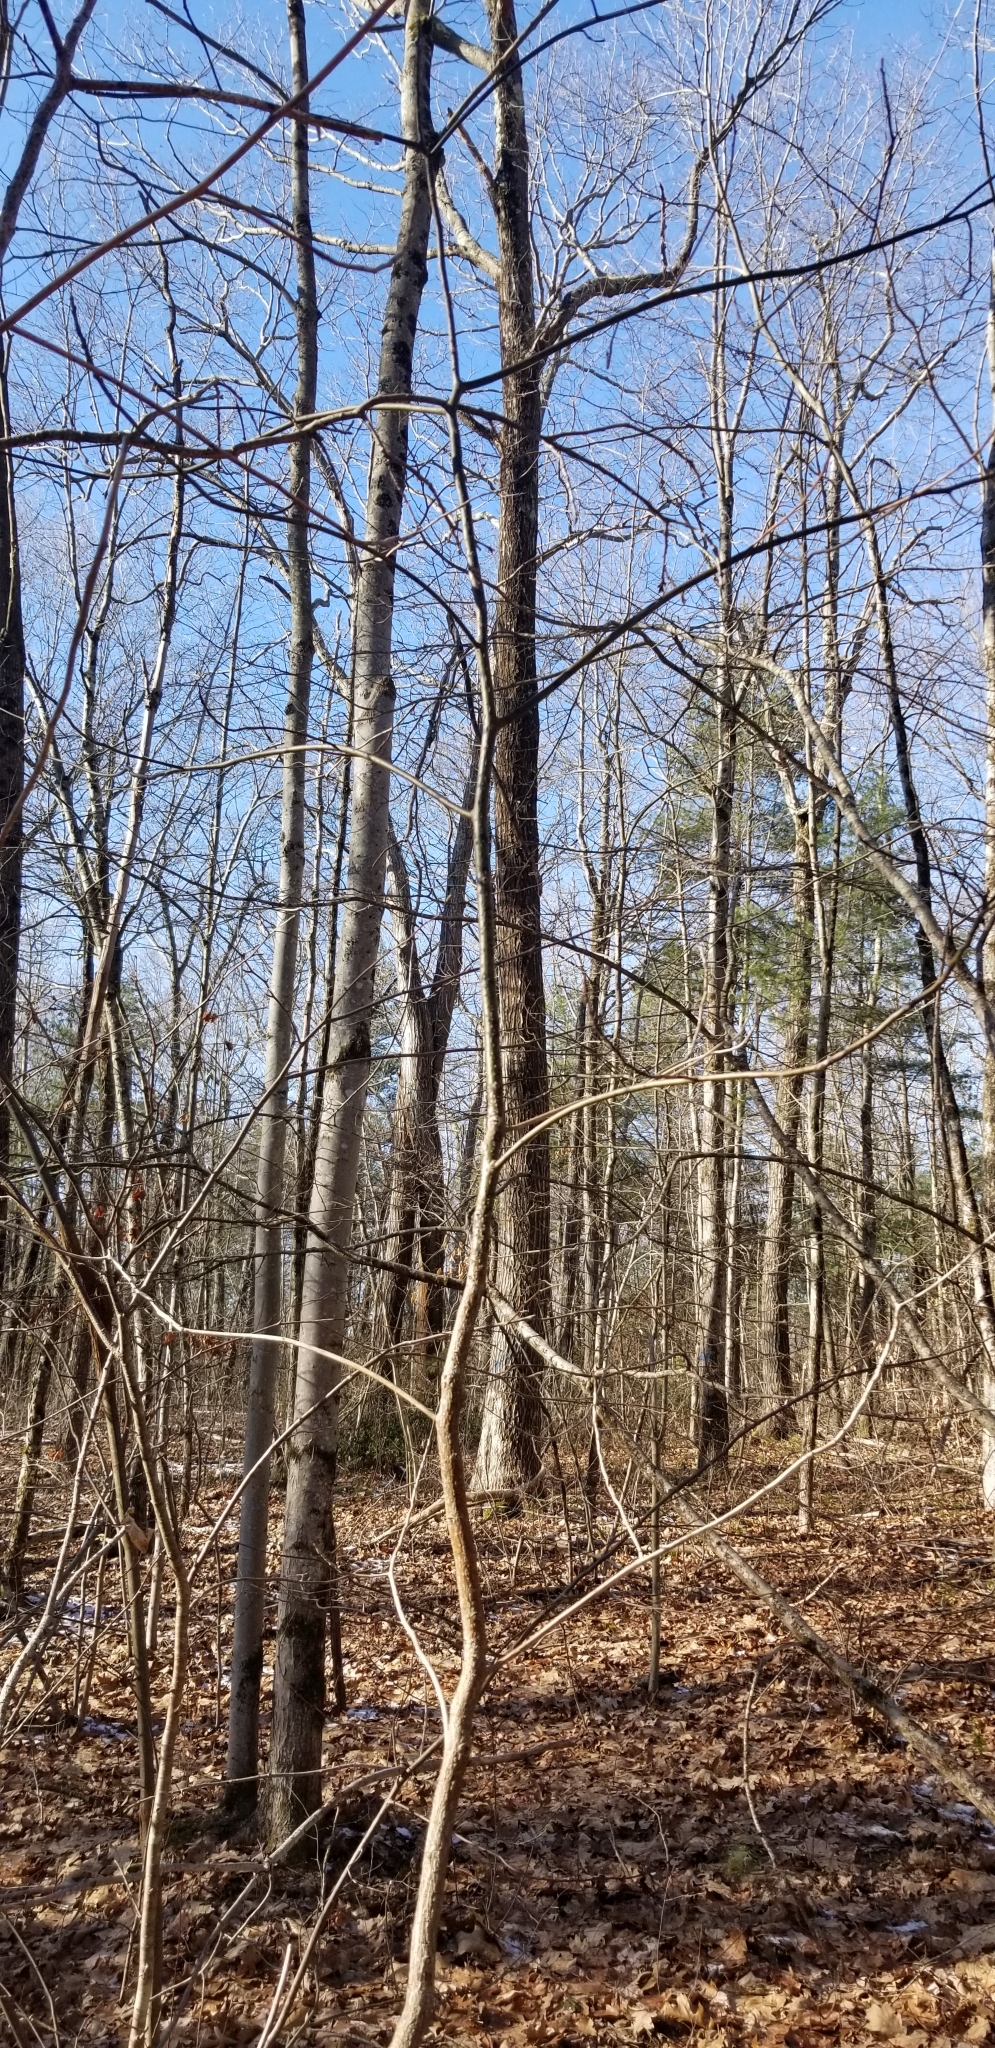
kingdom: Plantae
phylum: Tracheophyta
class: Magnoliopsida
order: Laurales
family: Lauraceae
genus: Sassafras
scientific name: Sassafras albidum
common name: Sassafras
